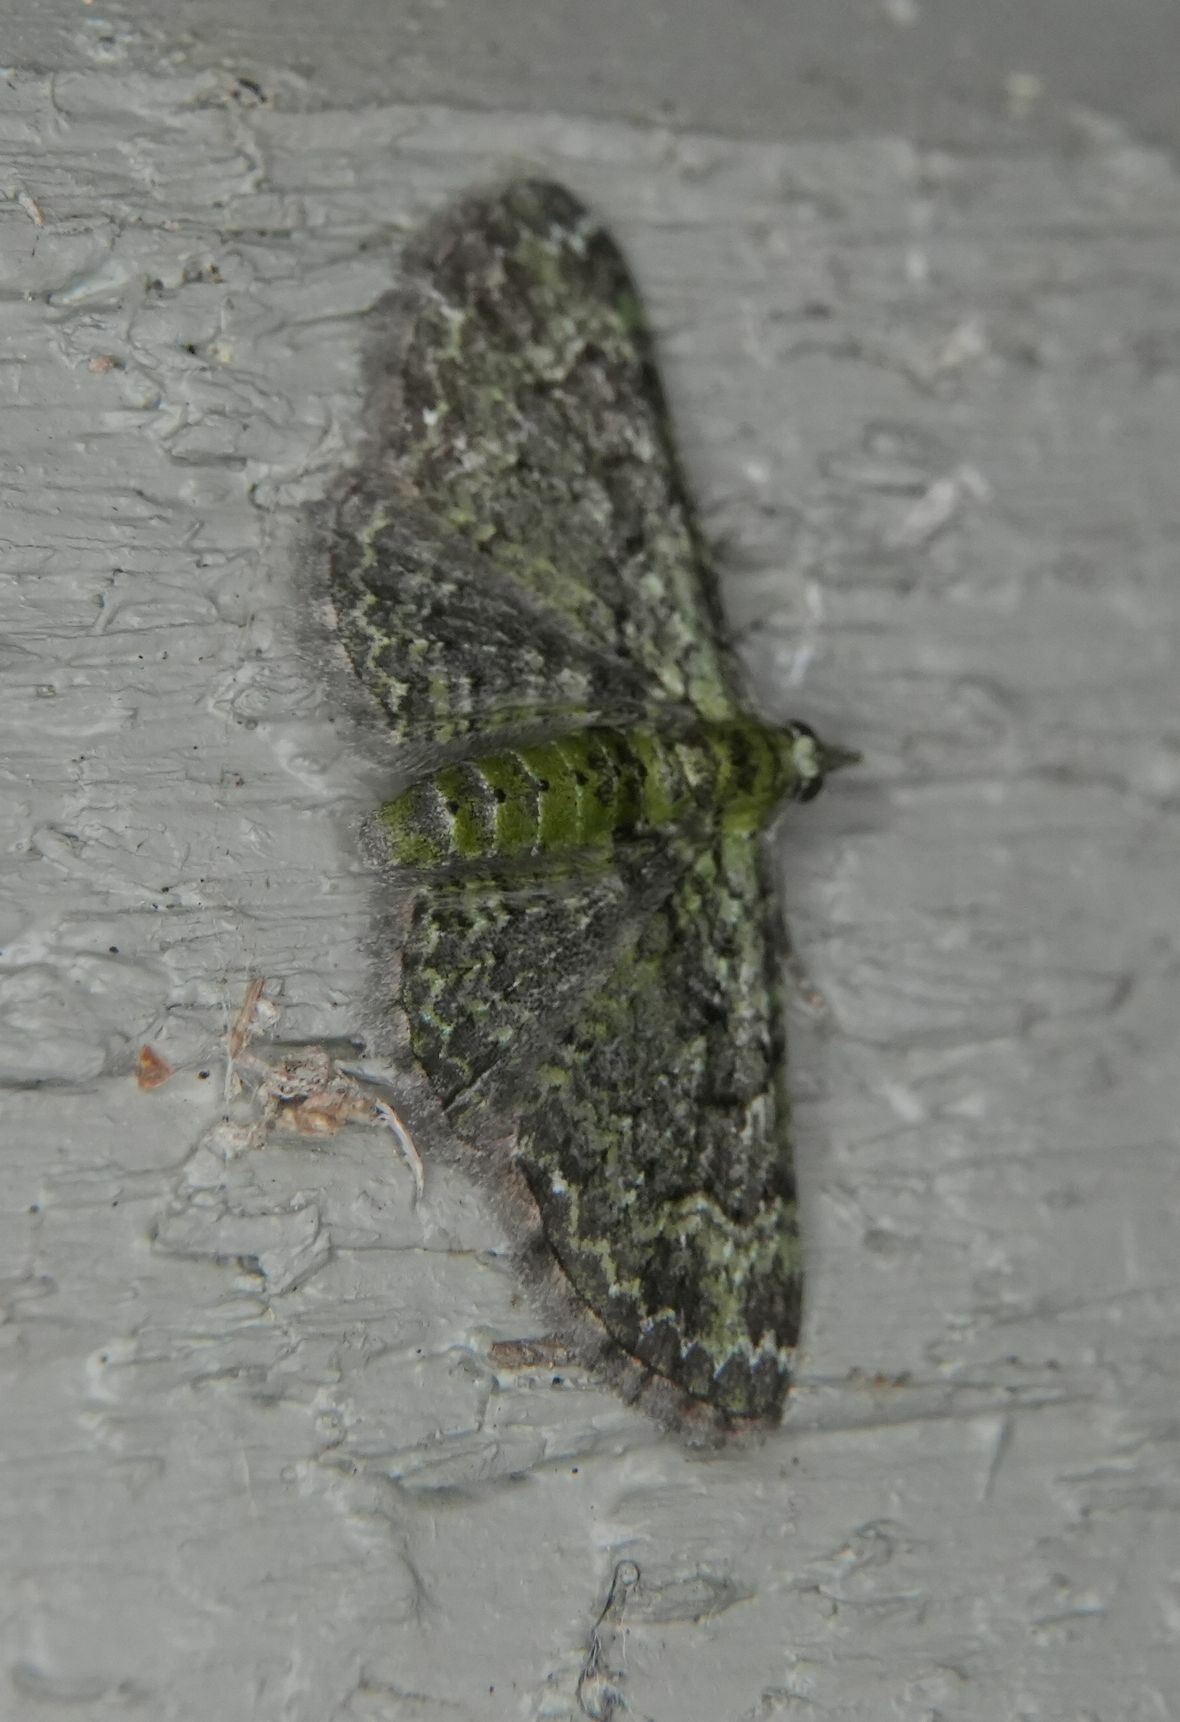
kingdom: Animalia
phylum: Arthropoda
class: Insecta
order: Lepidoptera
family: Geometridae
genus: Pasiphila
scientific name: Pasiphila rectangulata
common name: Green pug
